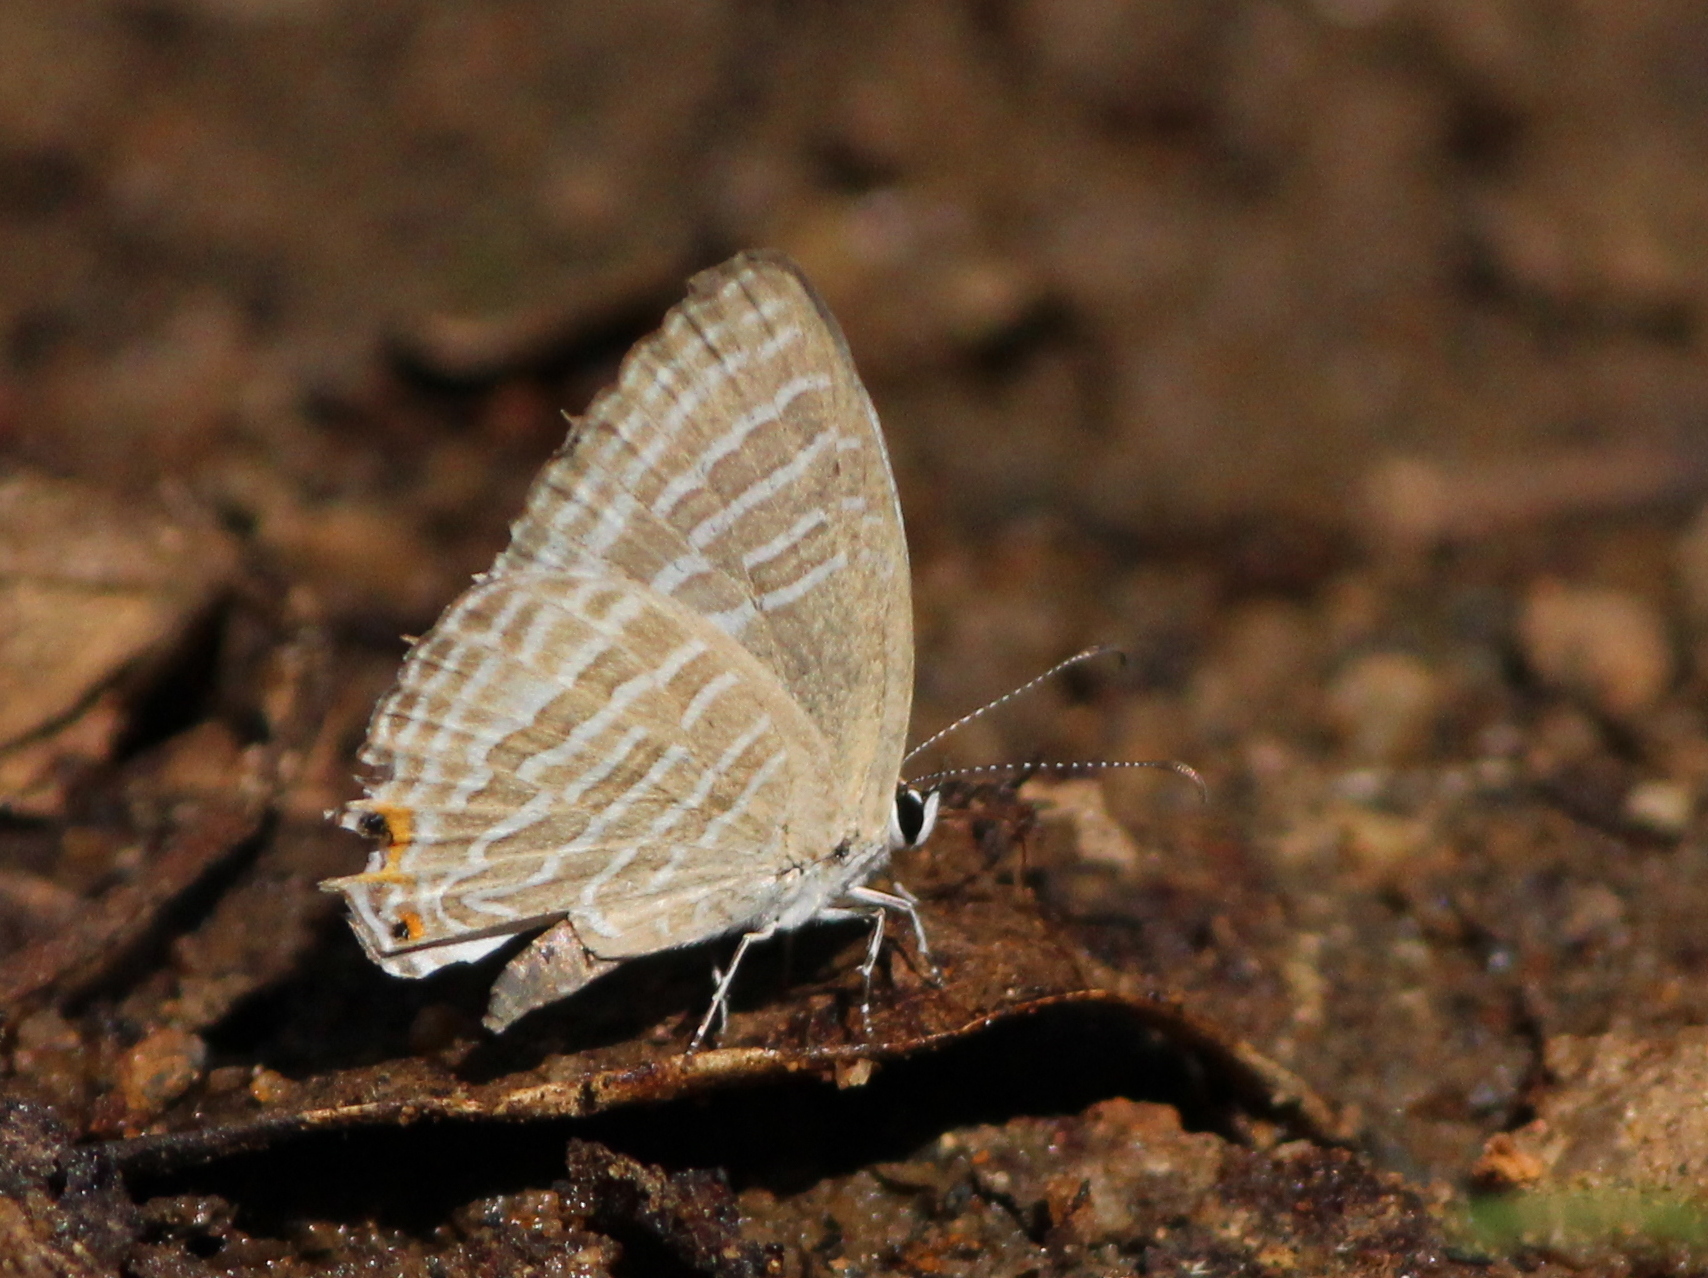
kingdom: Animalia
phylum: Arthropoda
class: Insecta
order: Lepidoptera
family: Lycaenidae
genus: Jamides
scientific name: Jamides celeno
